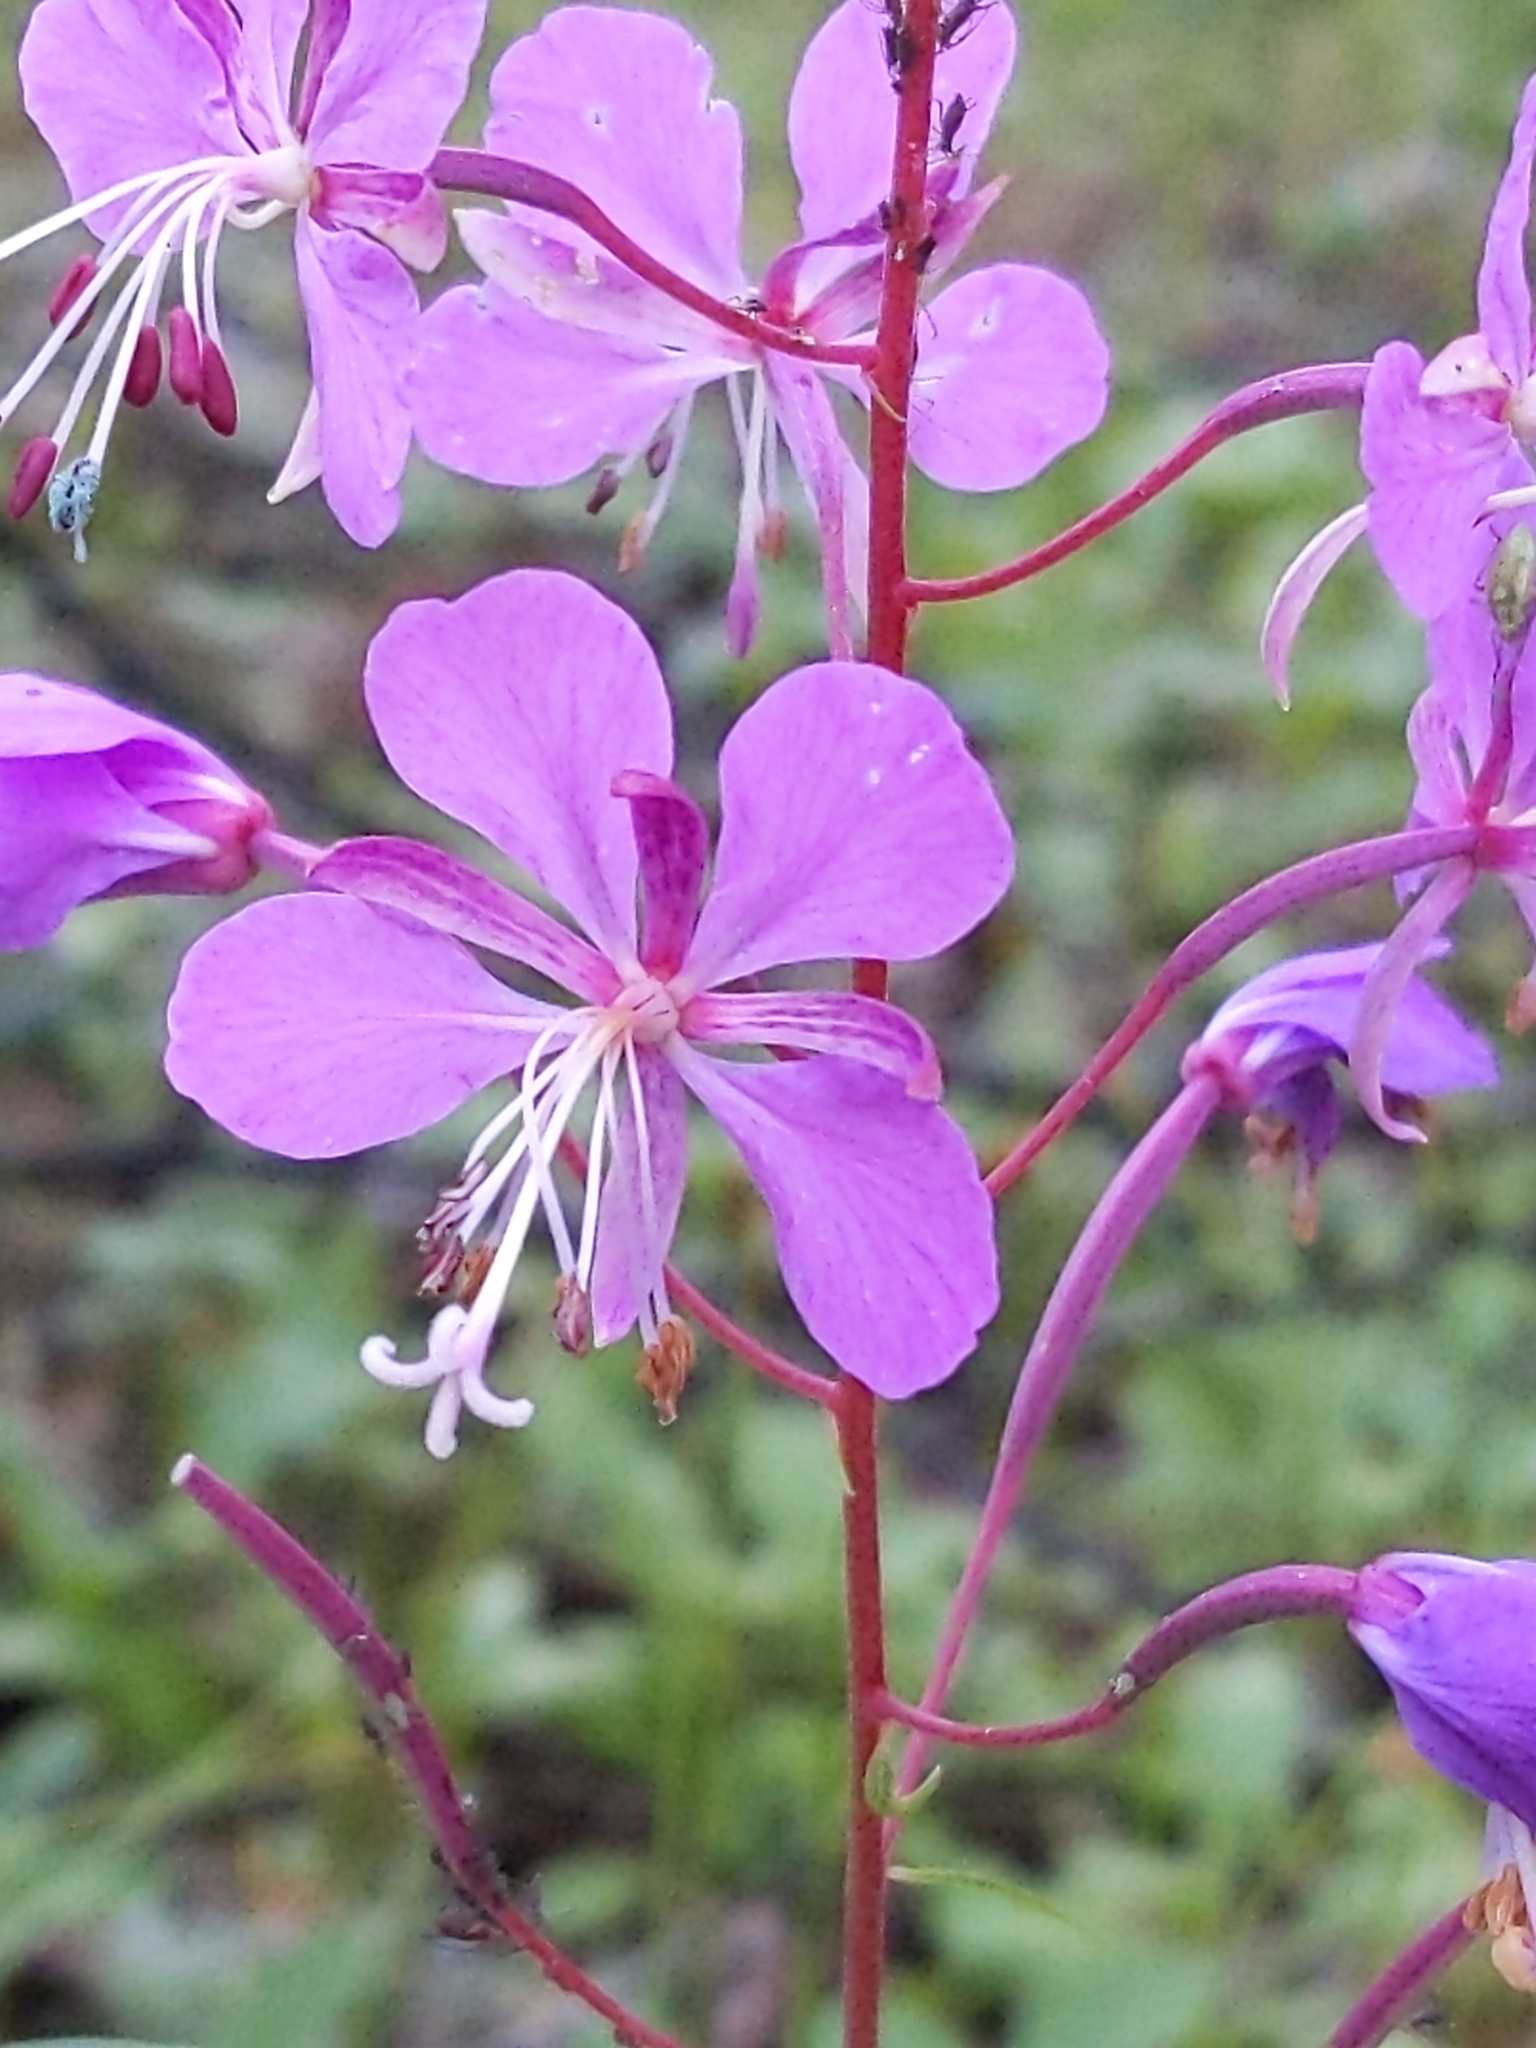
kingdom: Plantae
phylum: Tracheophyta
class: Magnoliopsida
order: Myrtales
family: Onagraceae
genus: Chamaenerion
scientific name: Chamaenerion angustifolium
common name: Fireweed
